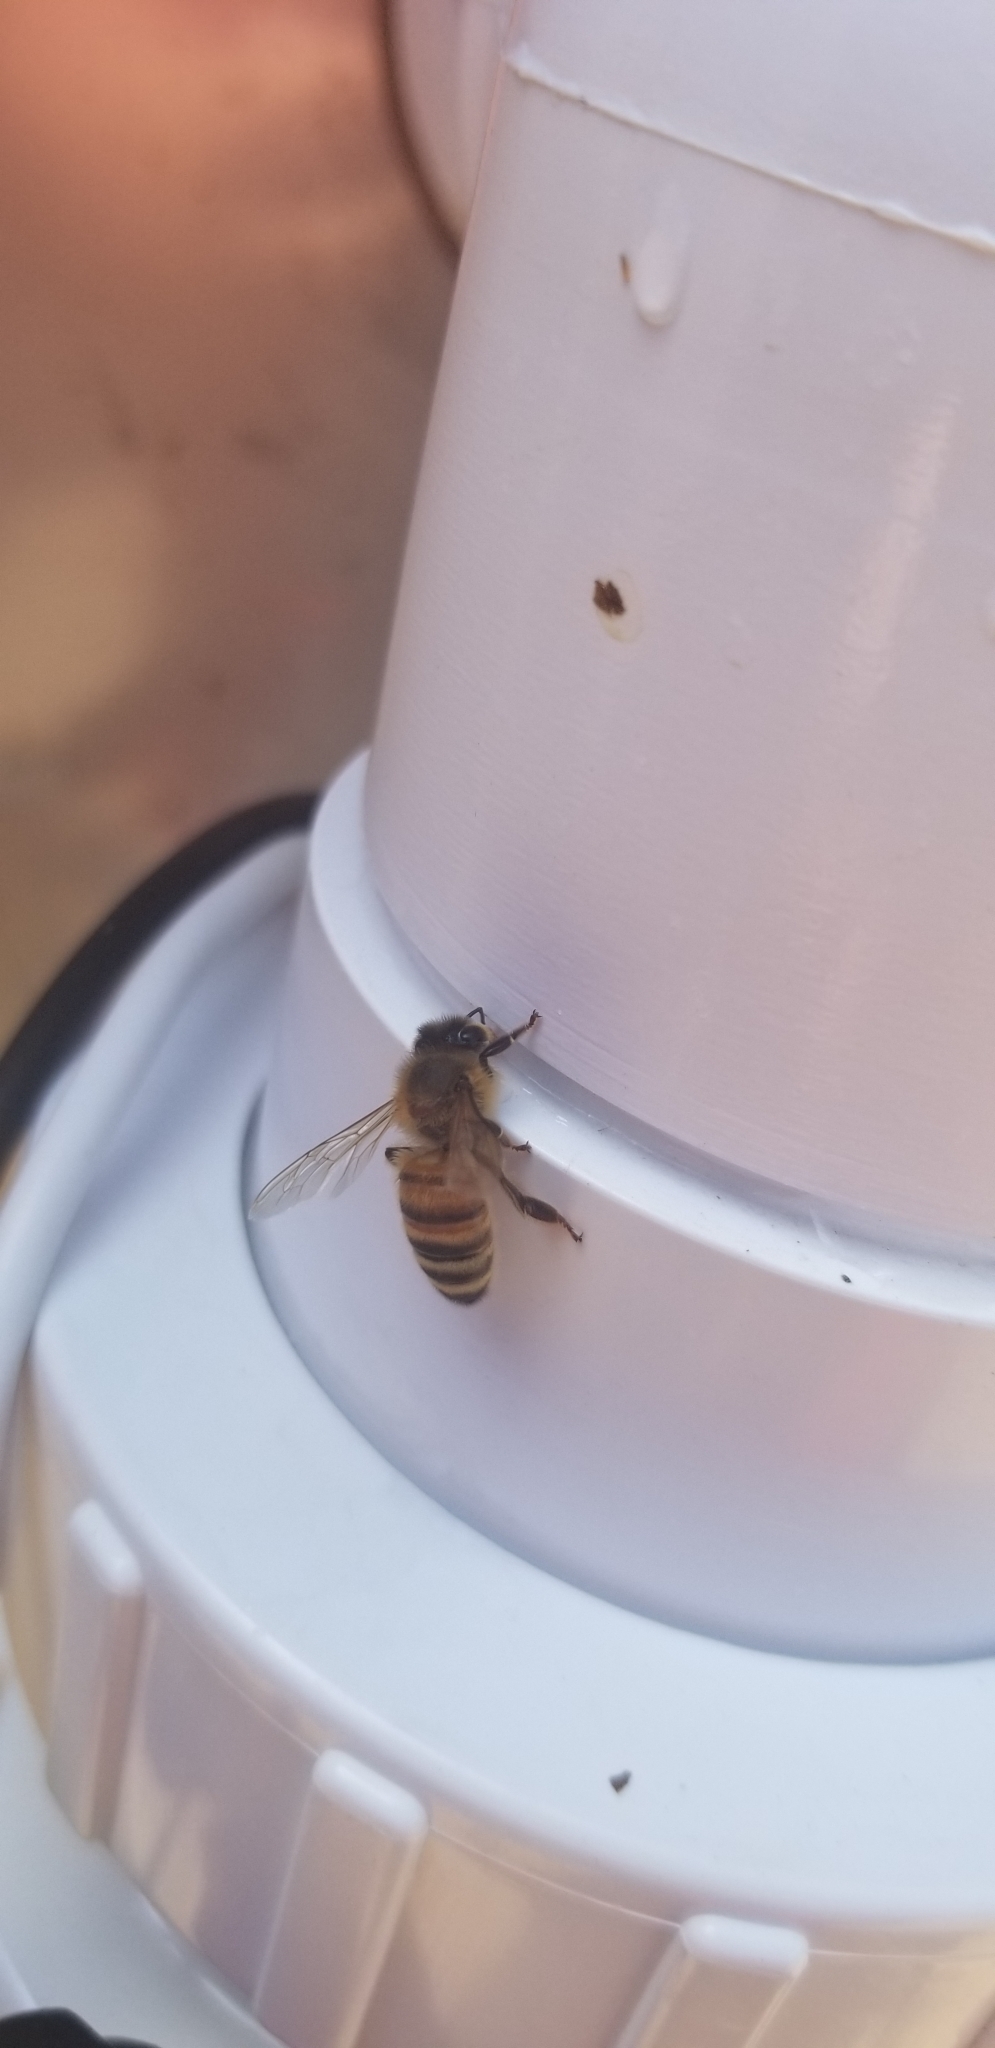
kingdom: Animalia
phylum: Arthropoda
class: Insecta
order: Hymenoptera
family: Apidae
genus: Apis
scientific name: Apis mellifera
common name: Honey bee
